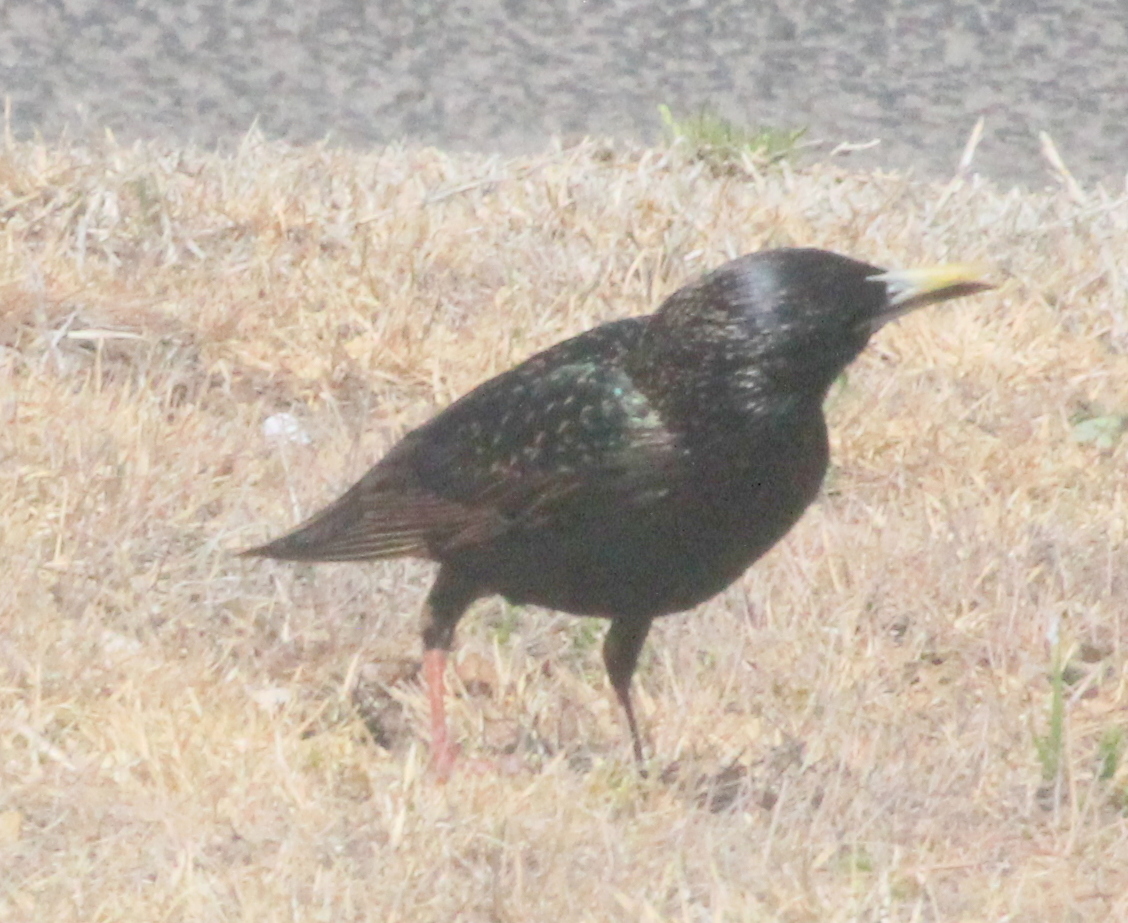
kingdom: Animalia
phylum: Chordata
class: Aves
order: Passeriformes
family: Sturnidae
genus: Sturnus
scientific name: Sturnus vulgaris
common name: Common starling
